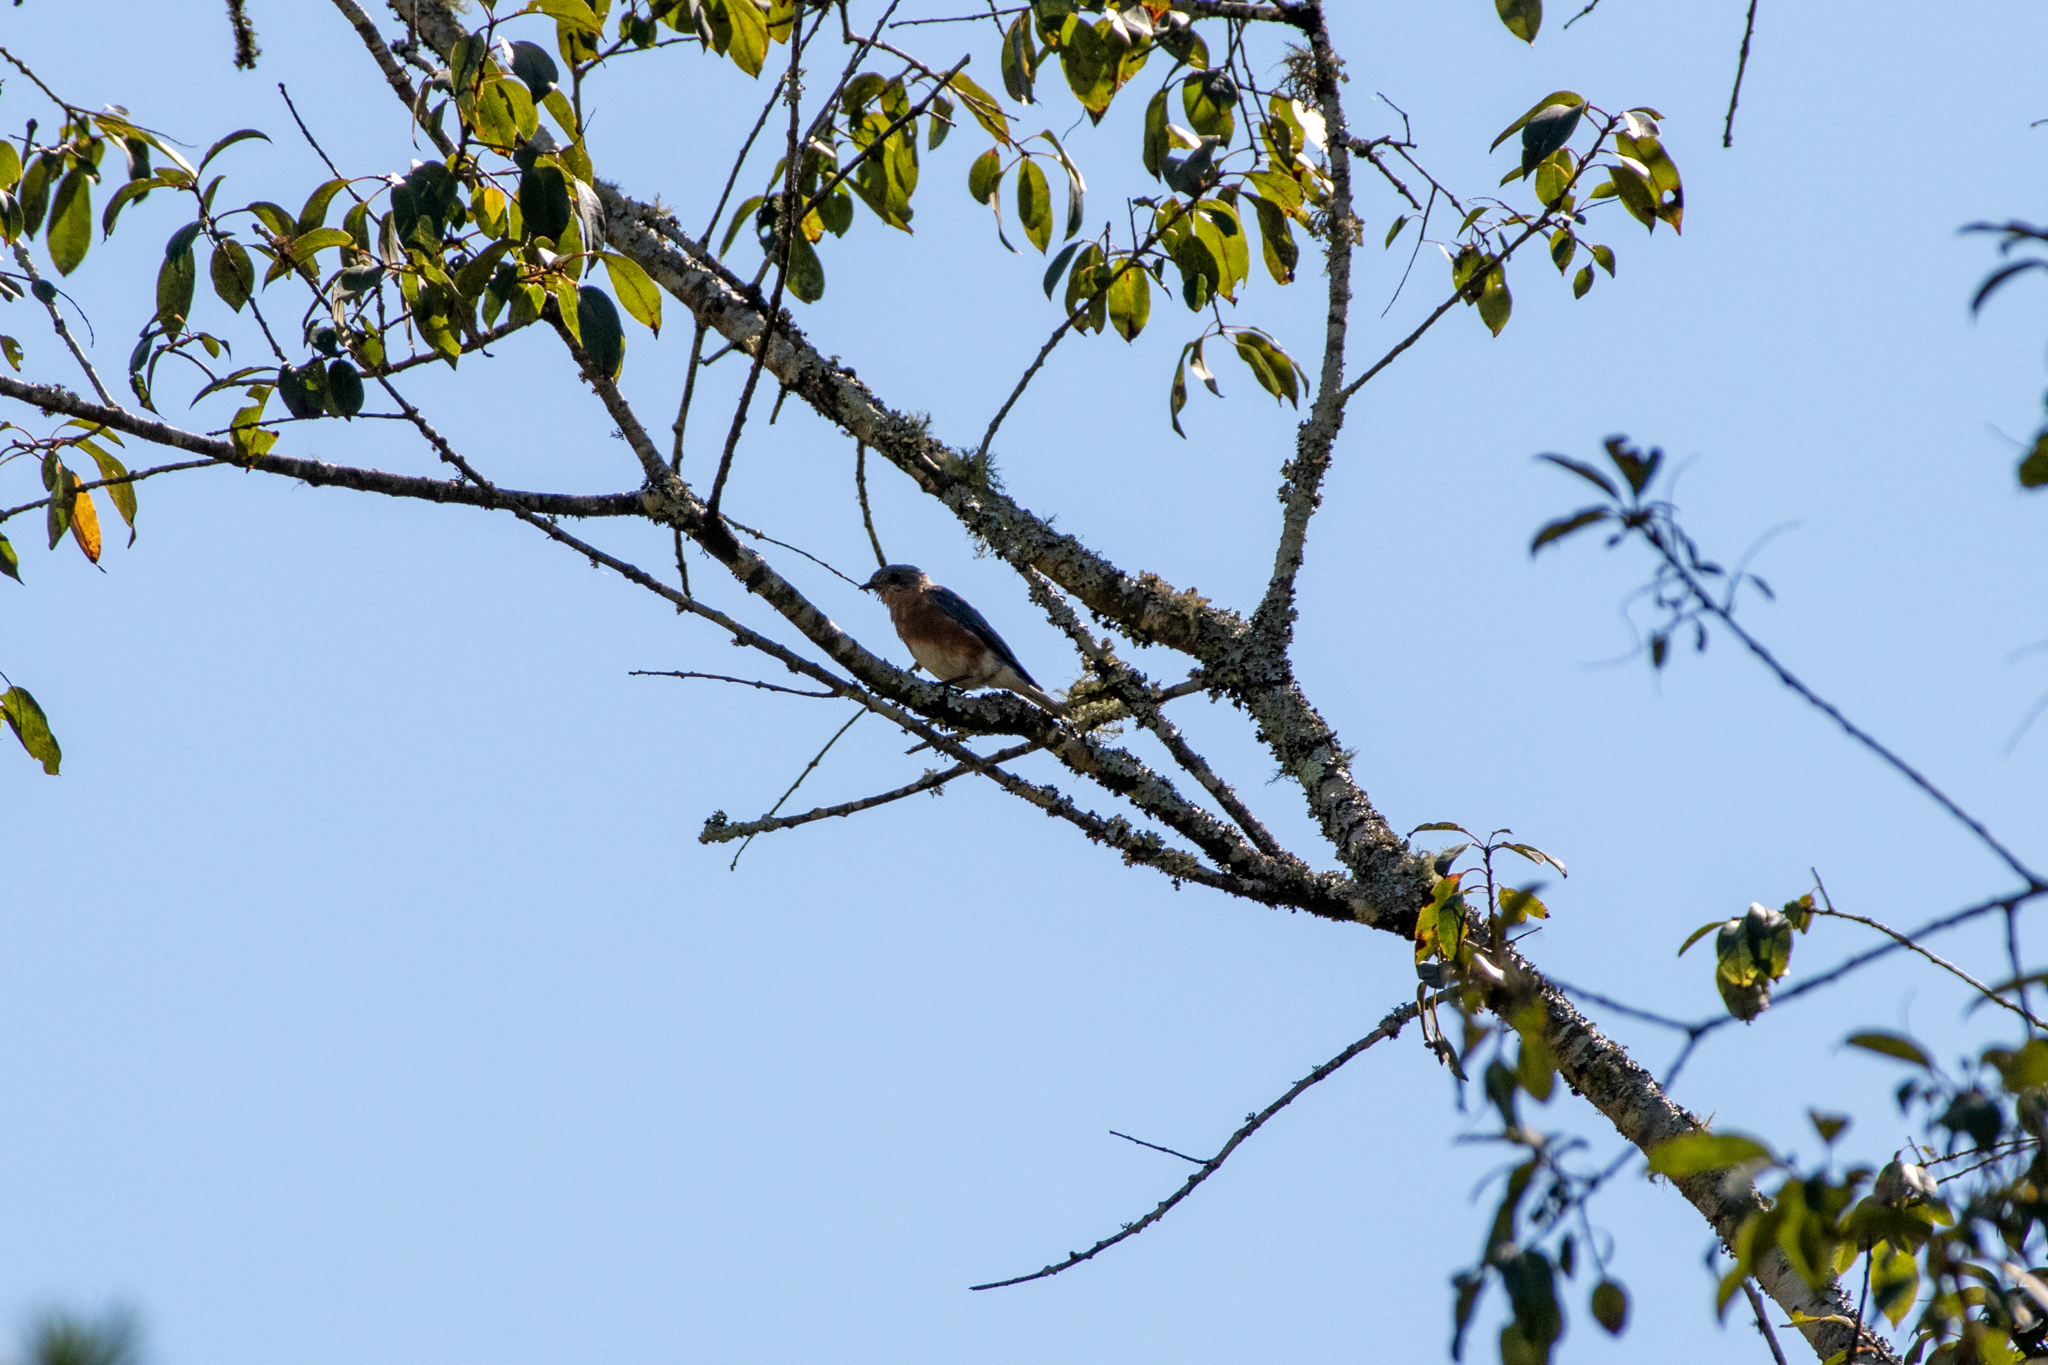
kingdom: Animalia
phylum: Chordata
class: Aves
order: Passeriformes
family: Turdidae
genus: Sialia
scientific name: Sialia sialis
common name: Eastern bluebird
